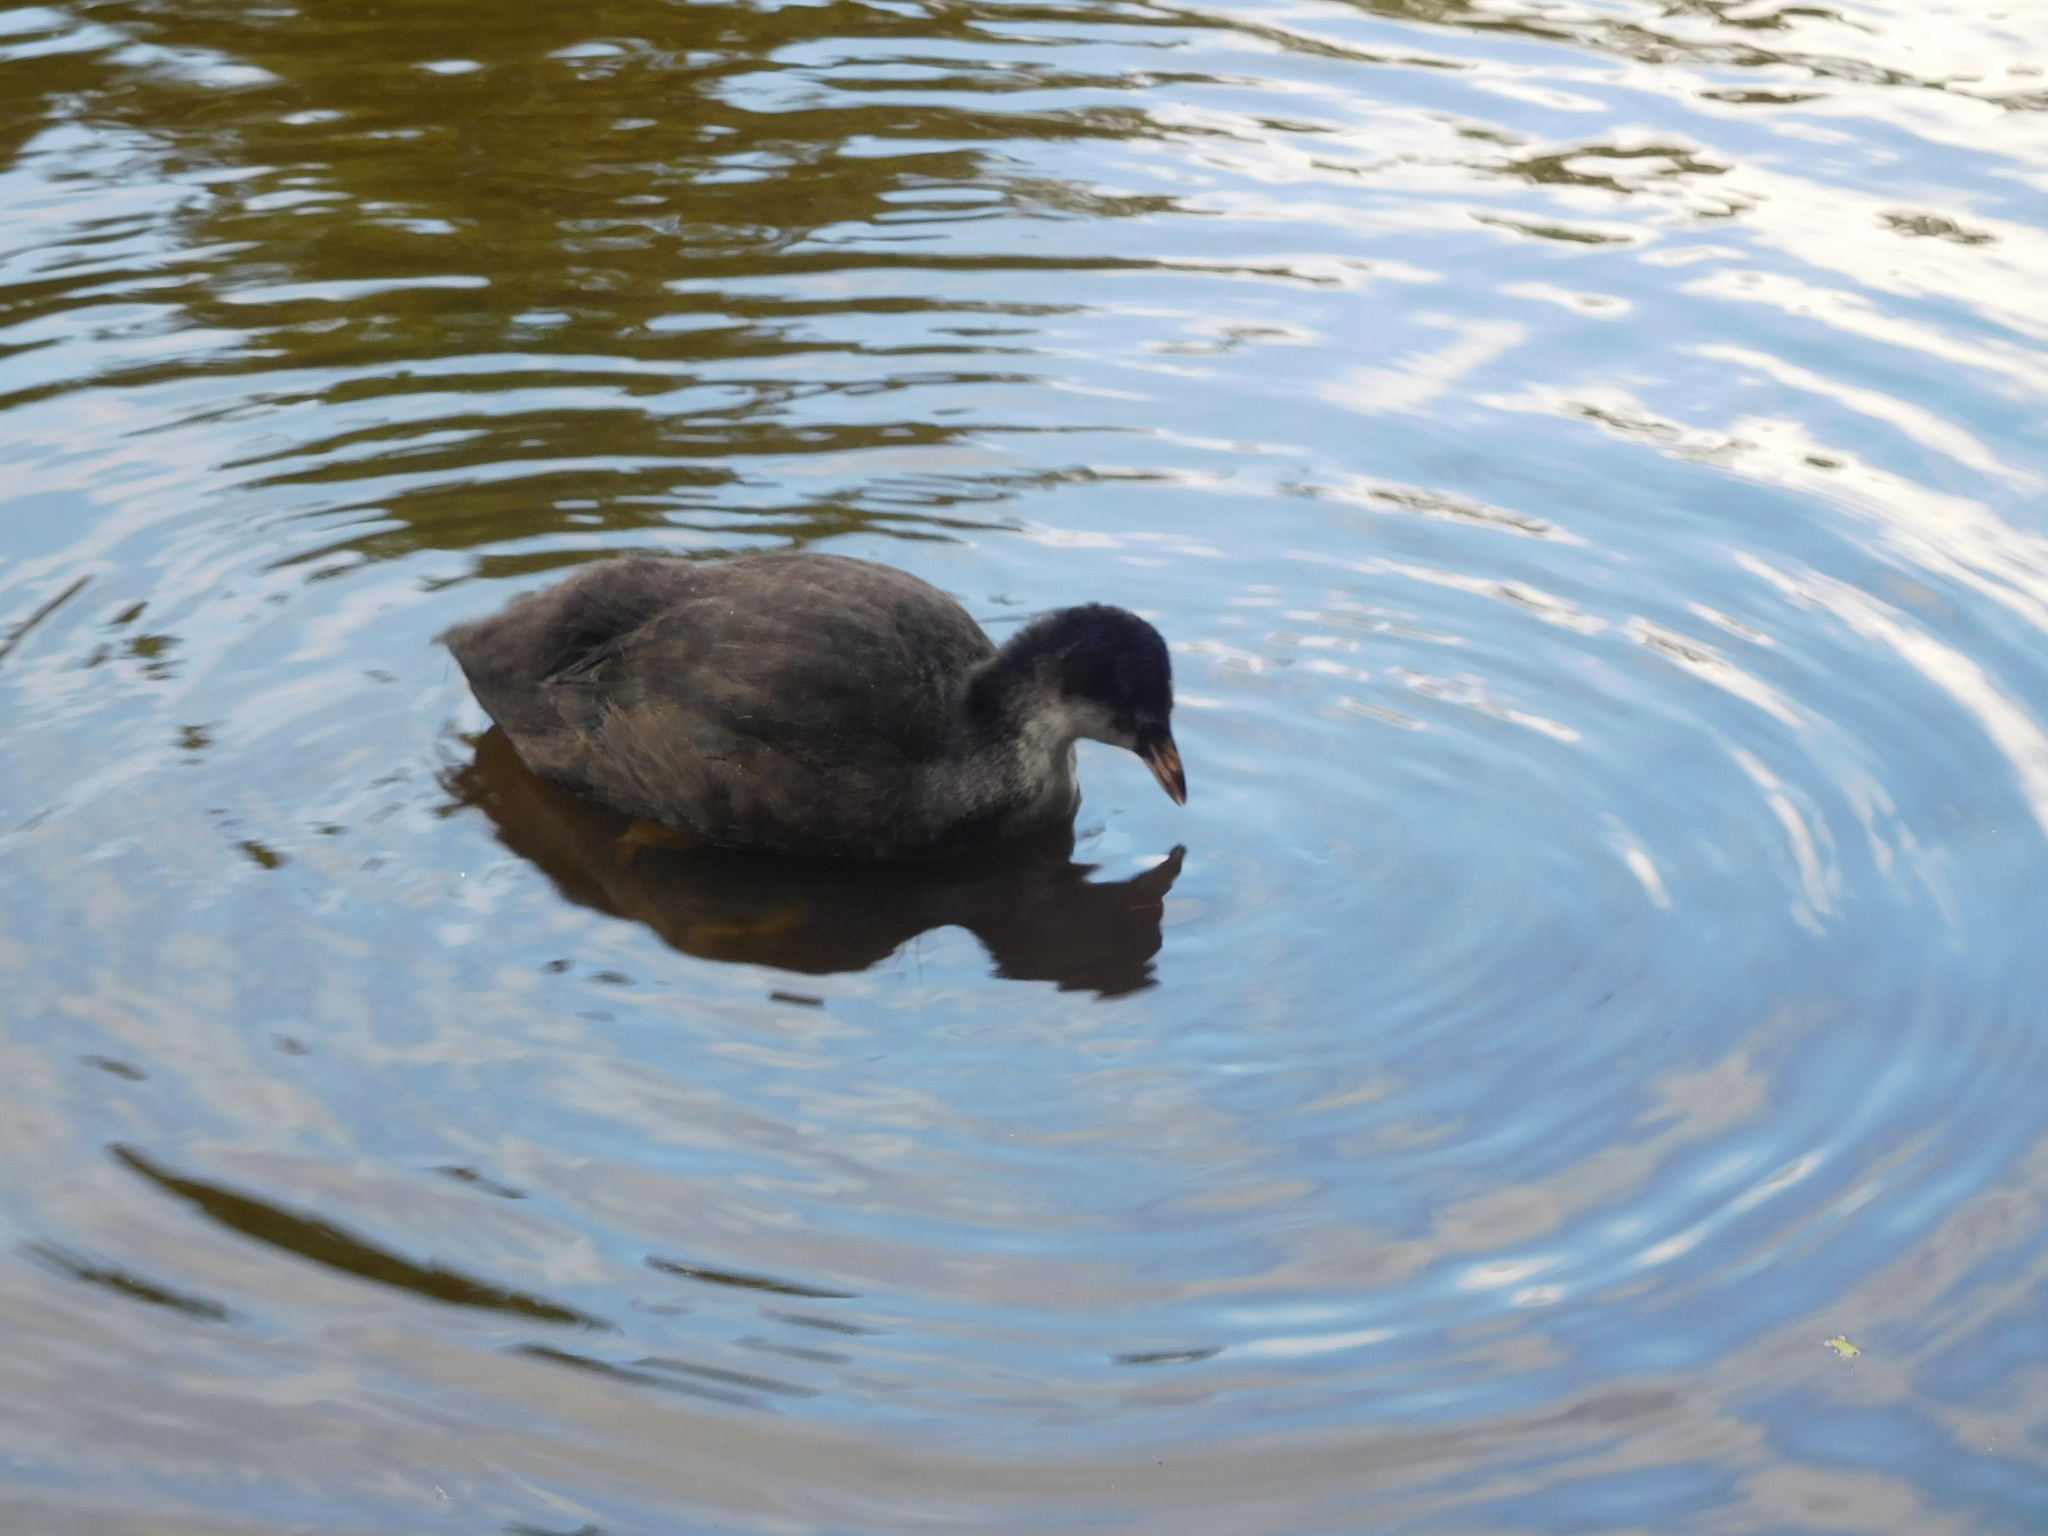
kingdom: Animalia
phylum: Chordata
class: Aves
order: Gruiformes
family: Rallidae
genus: Fulica
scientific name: Fulica atra
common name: Eurasian coot
